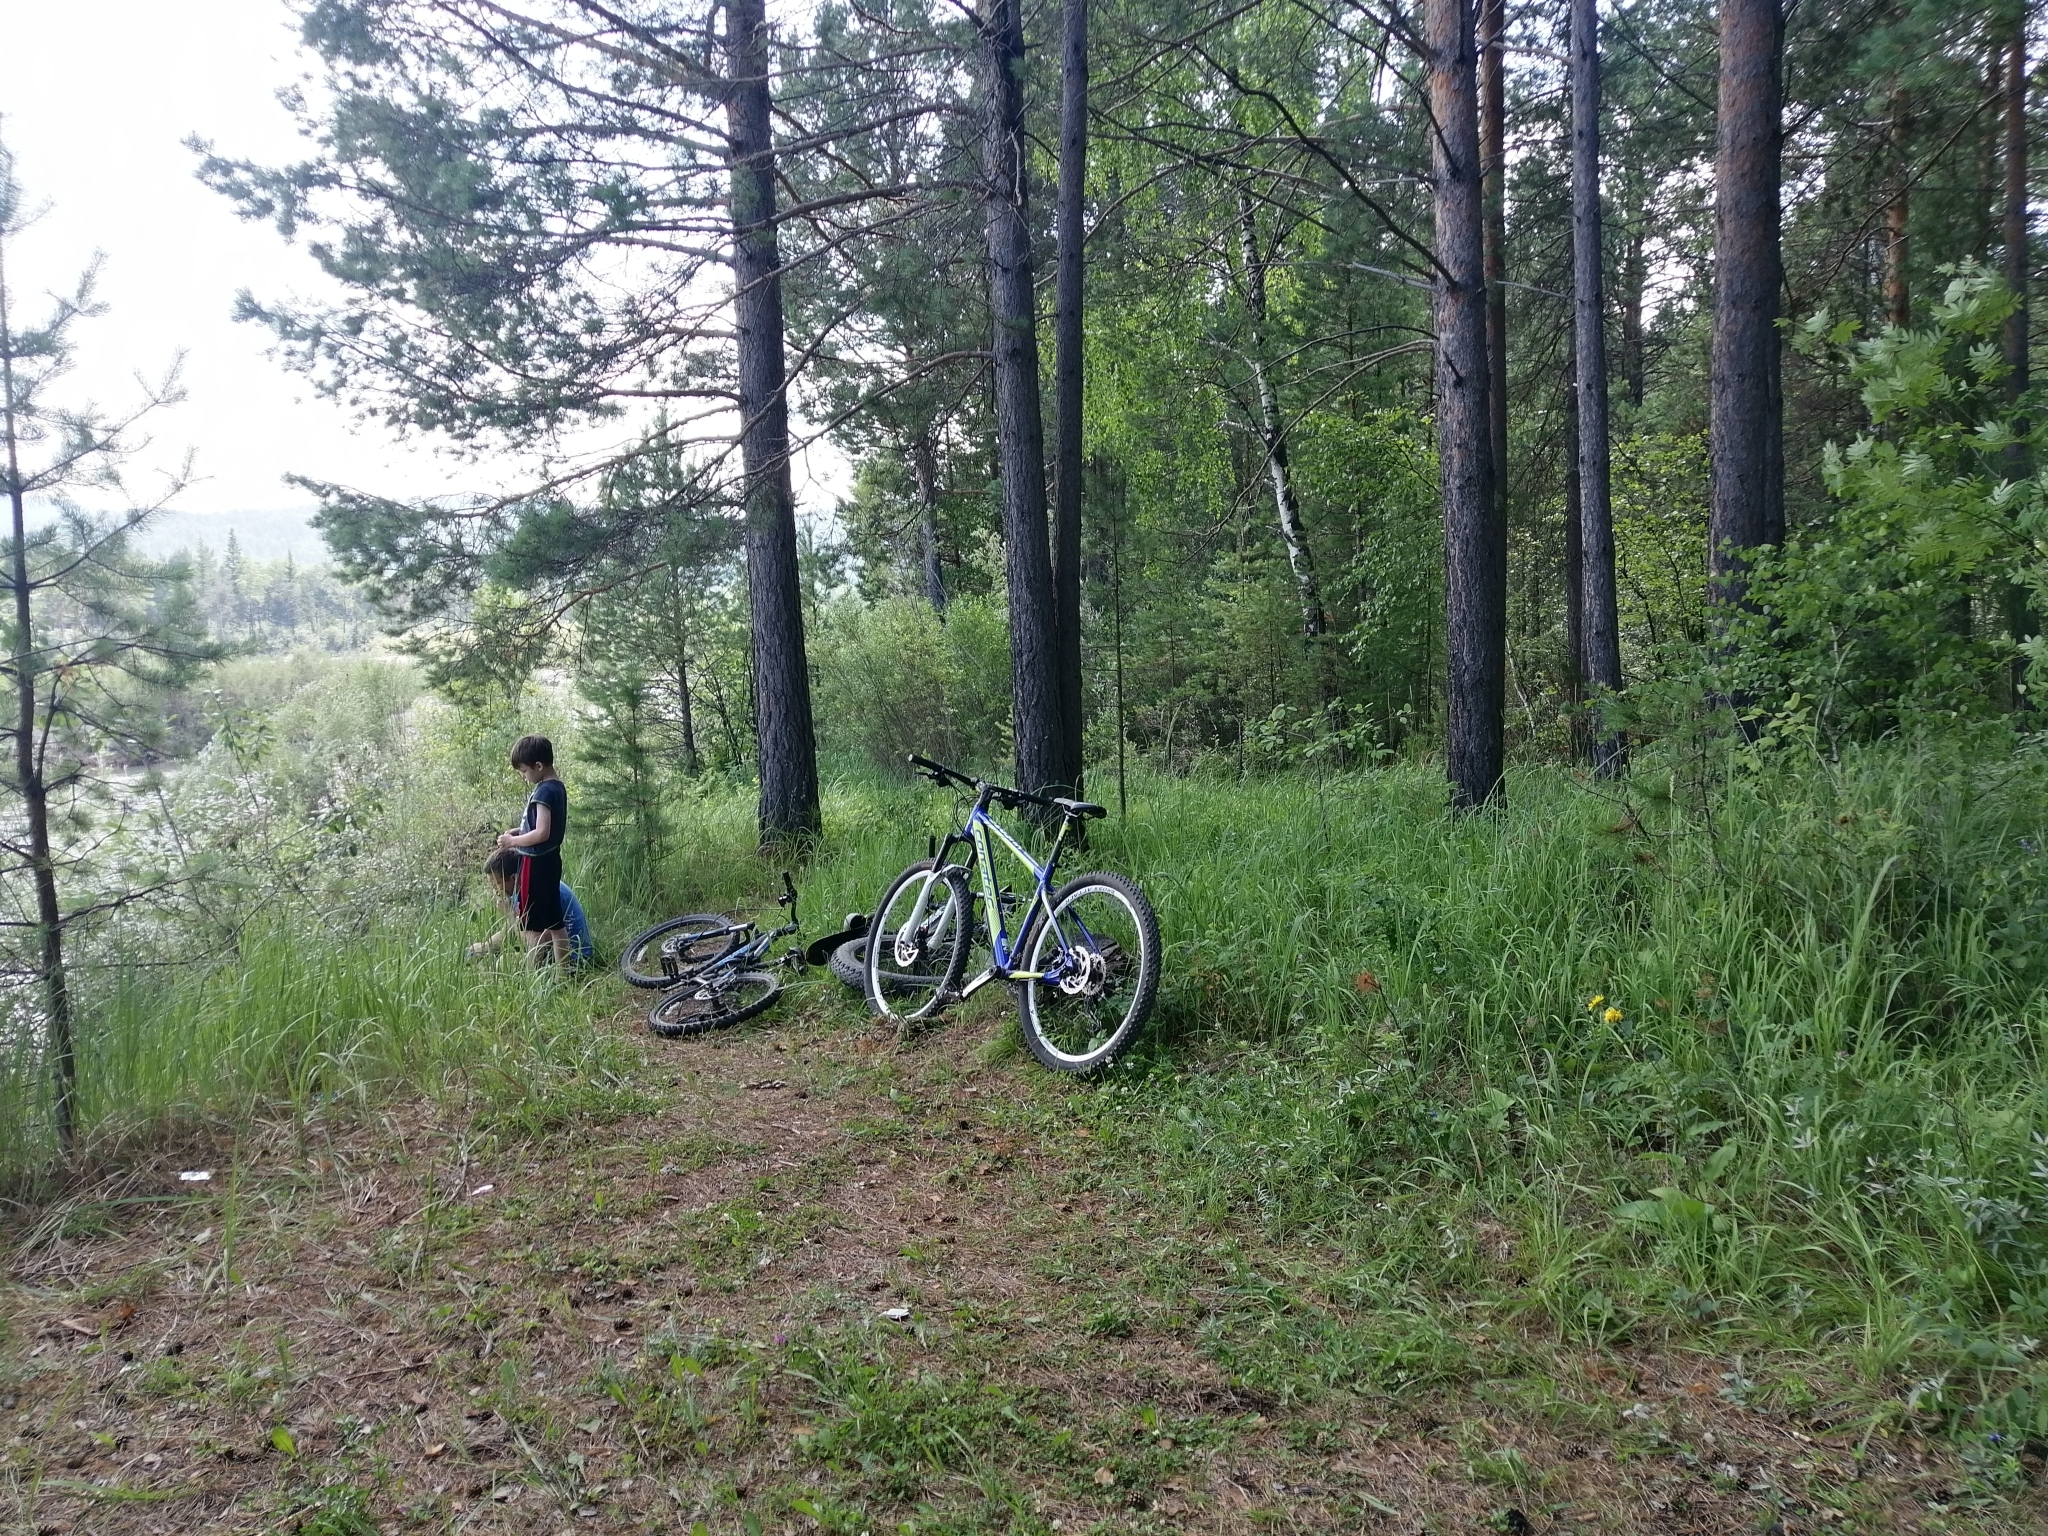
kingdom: Plantae
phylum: Tracheophyta
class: Pinopsida
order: Pinales
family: Pinaceae
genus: Pinus
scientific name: Pinus sylvestris
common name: Scots pine
